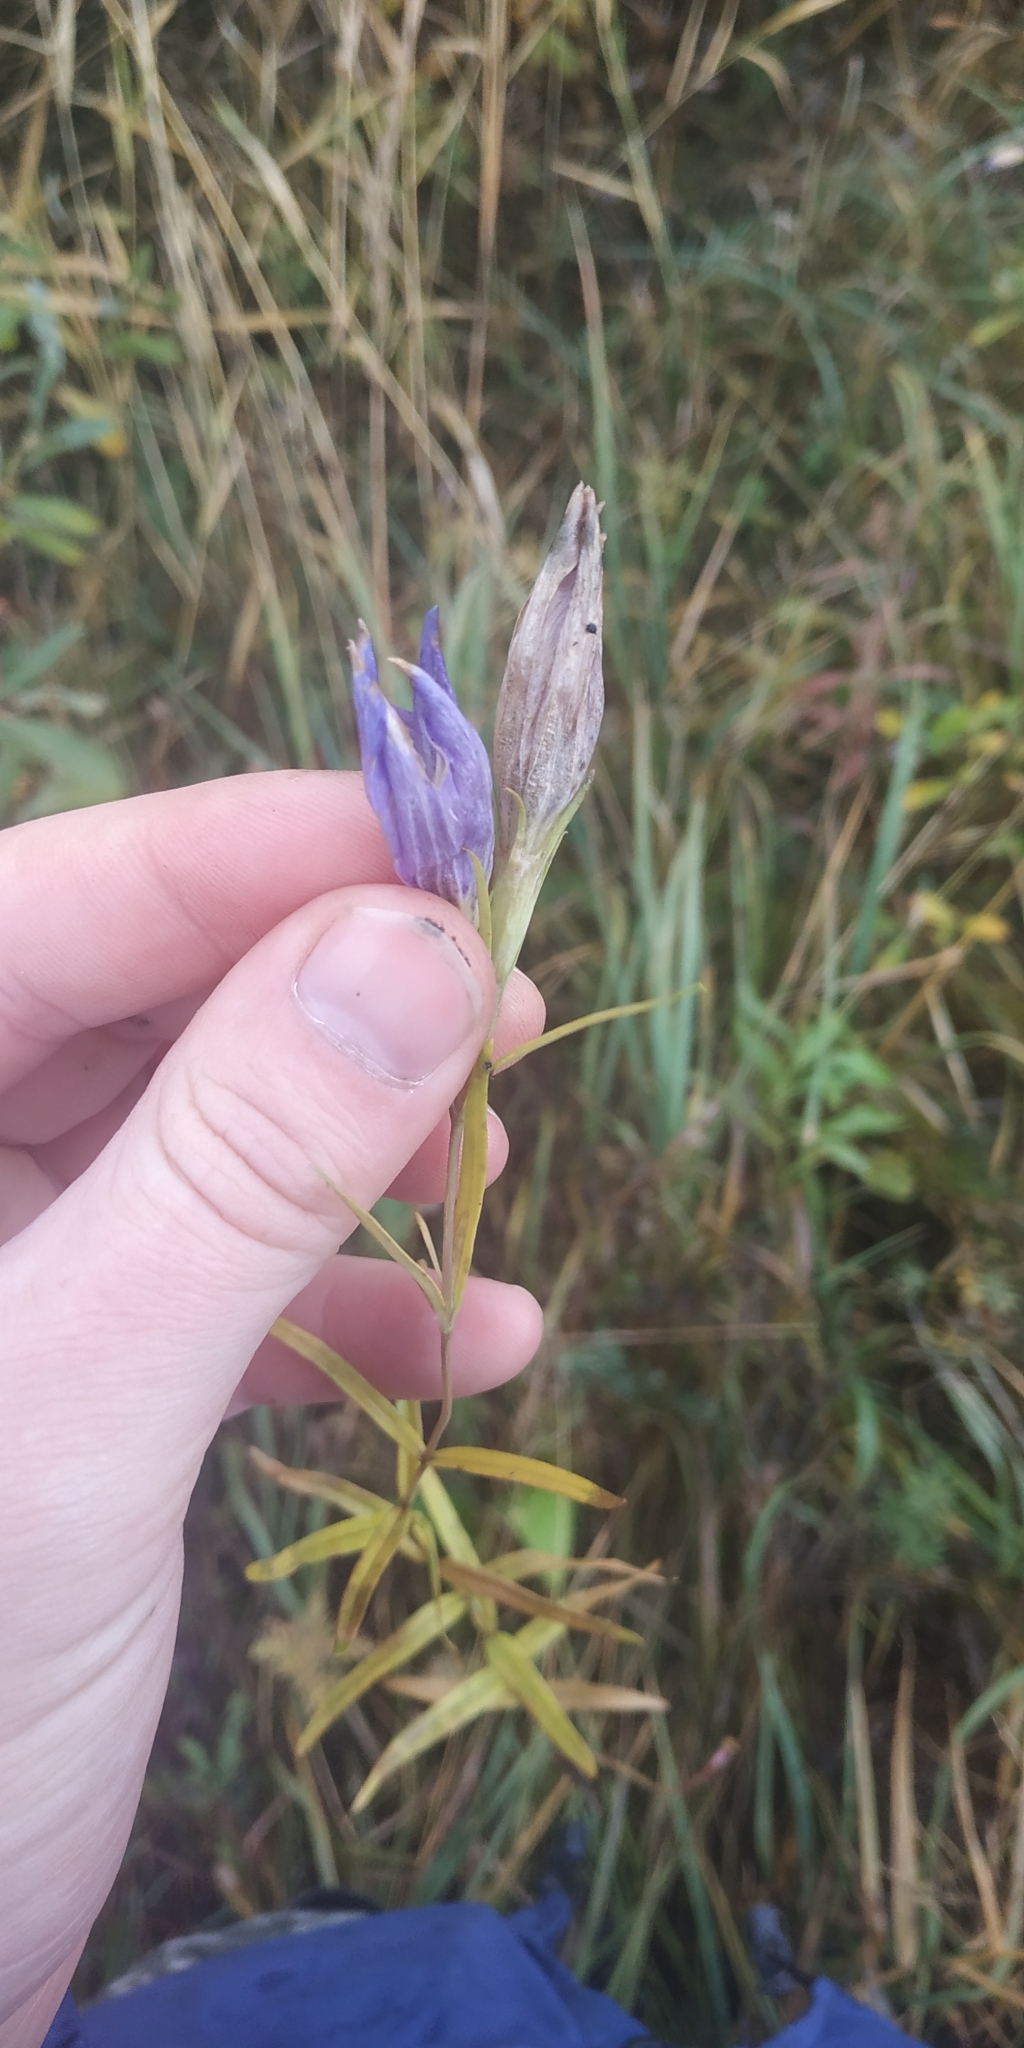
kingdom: Plantae
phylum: Tracheophyta
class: Magnoliopsida
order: Gentianales
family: Gentianaceae
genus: Gentiana
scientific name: Gentiana pneumonanthe
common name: Marsh gentian
